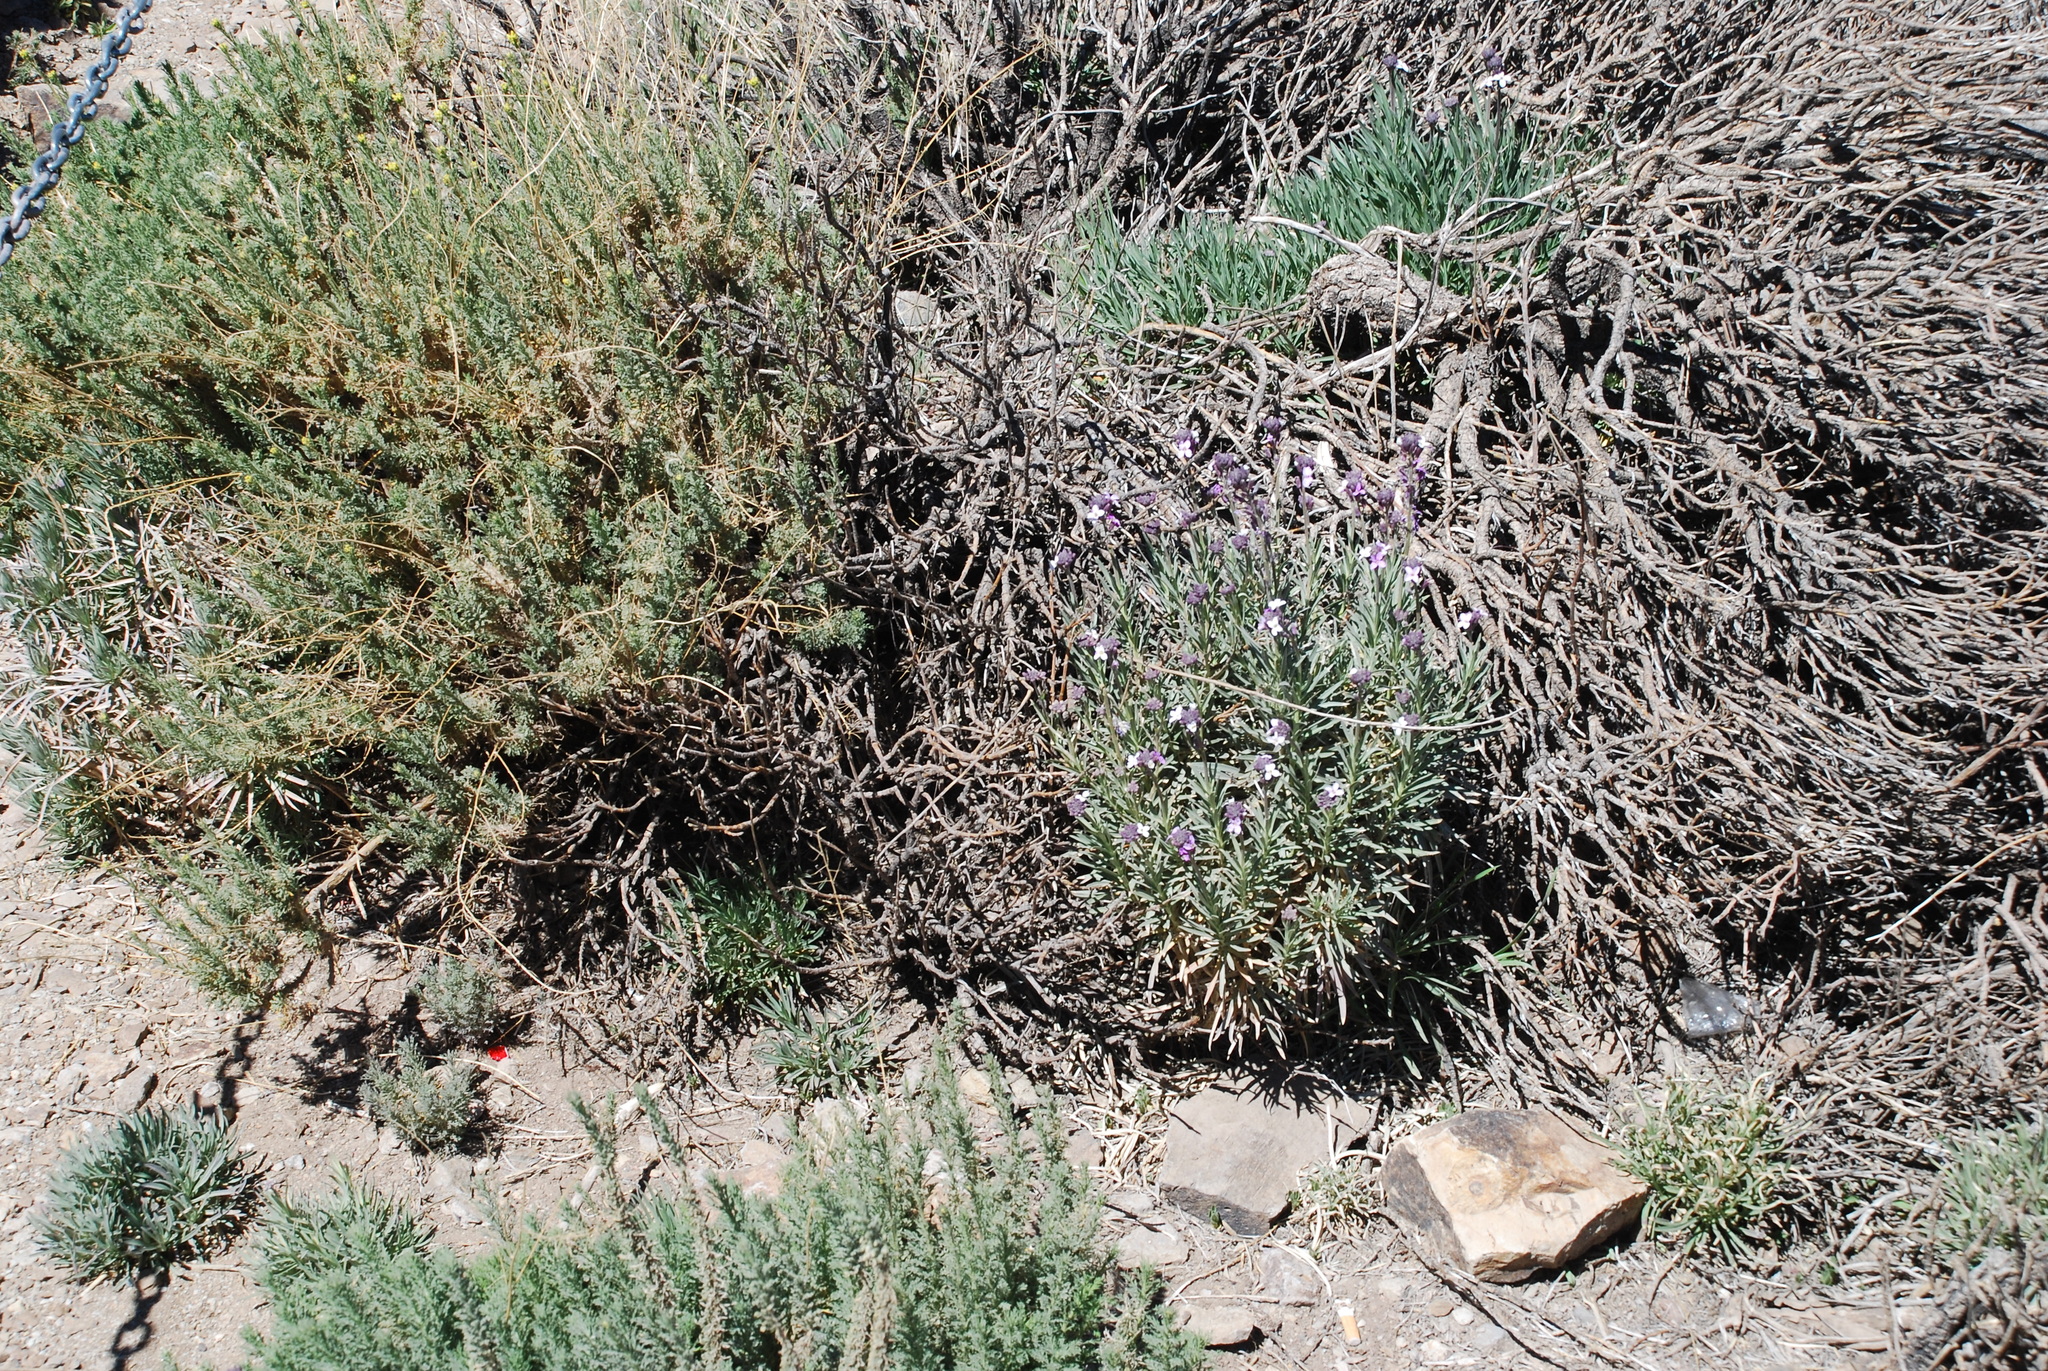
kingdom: Plantae
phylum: Tracheophyta
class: Magnoliopsida
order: Brassicales
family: Brassicaceae
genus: Erysimum
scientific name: Erysimum scoparium
